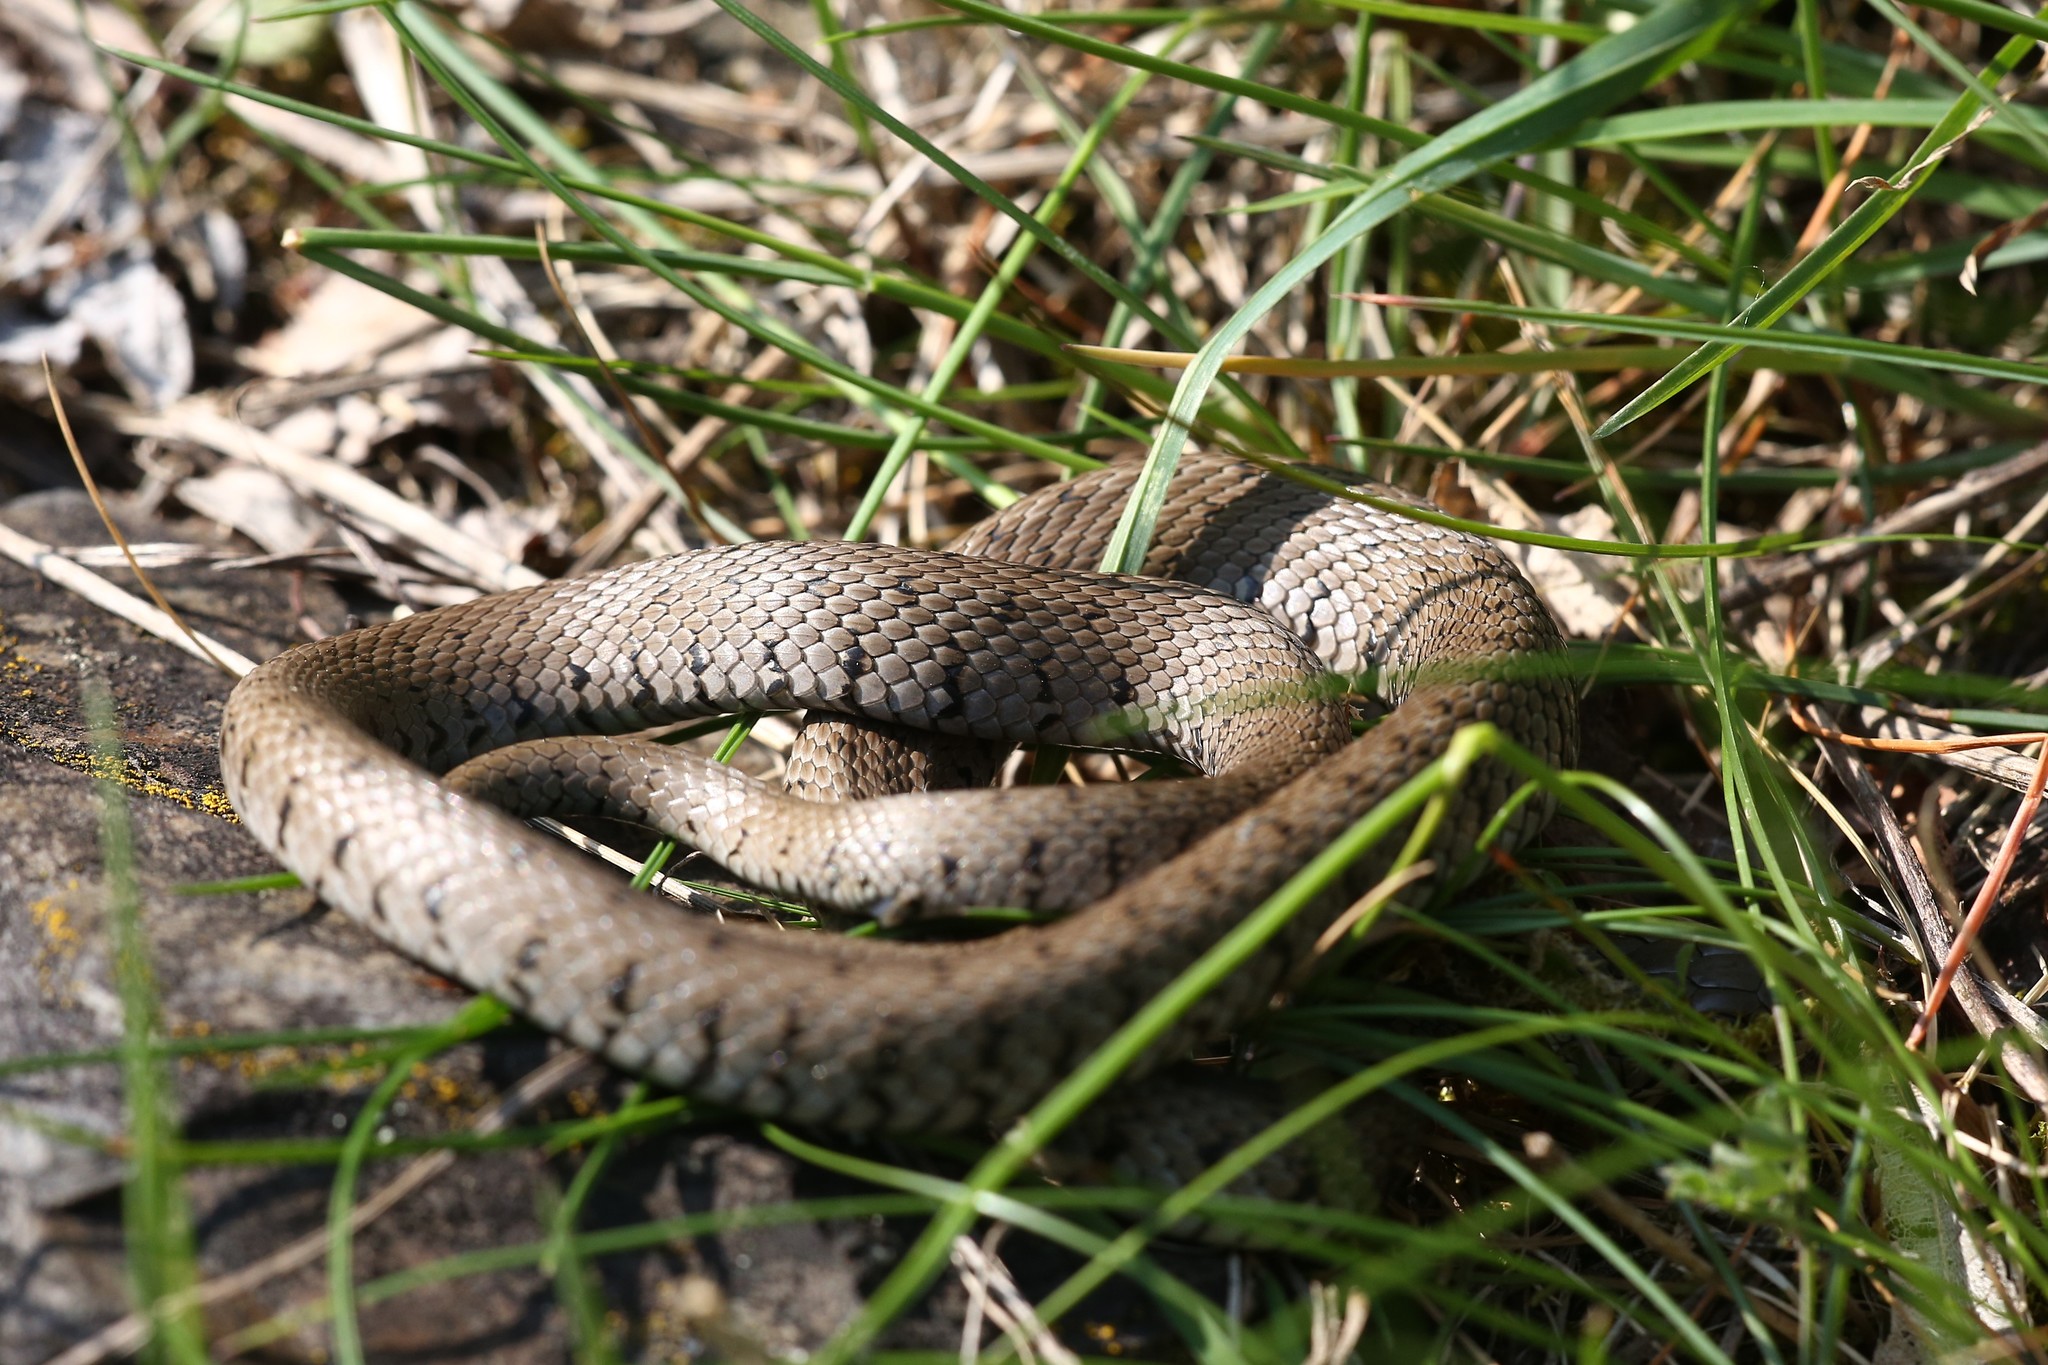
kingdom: Animalia
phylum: Chordata
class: Squamata
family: Colubridae
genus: Natrix
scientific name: Natrix helvetica
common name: Banded grass snake
